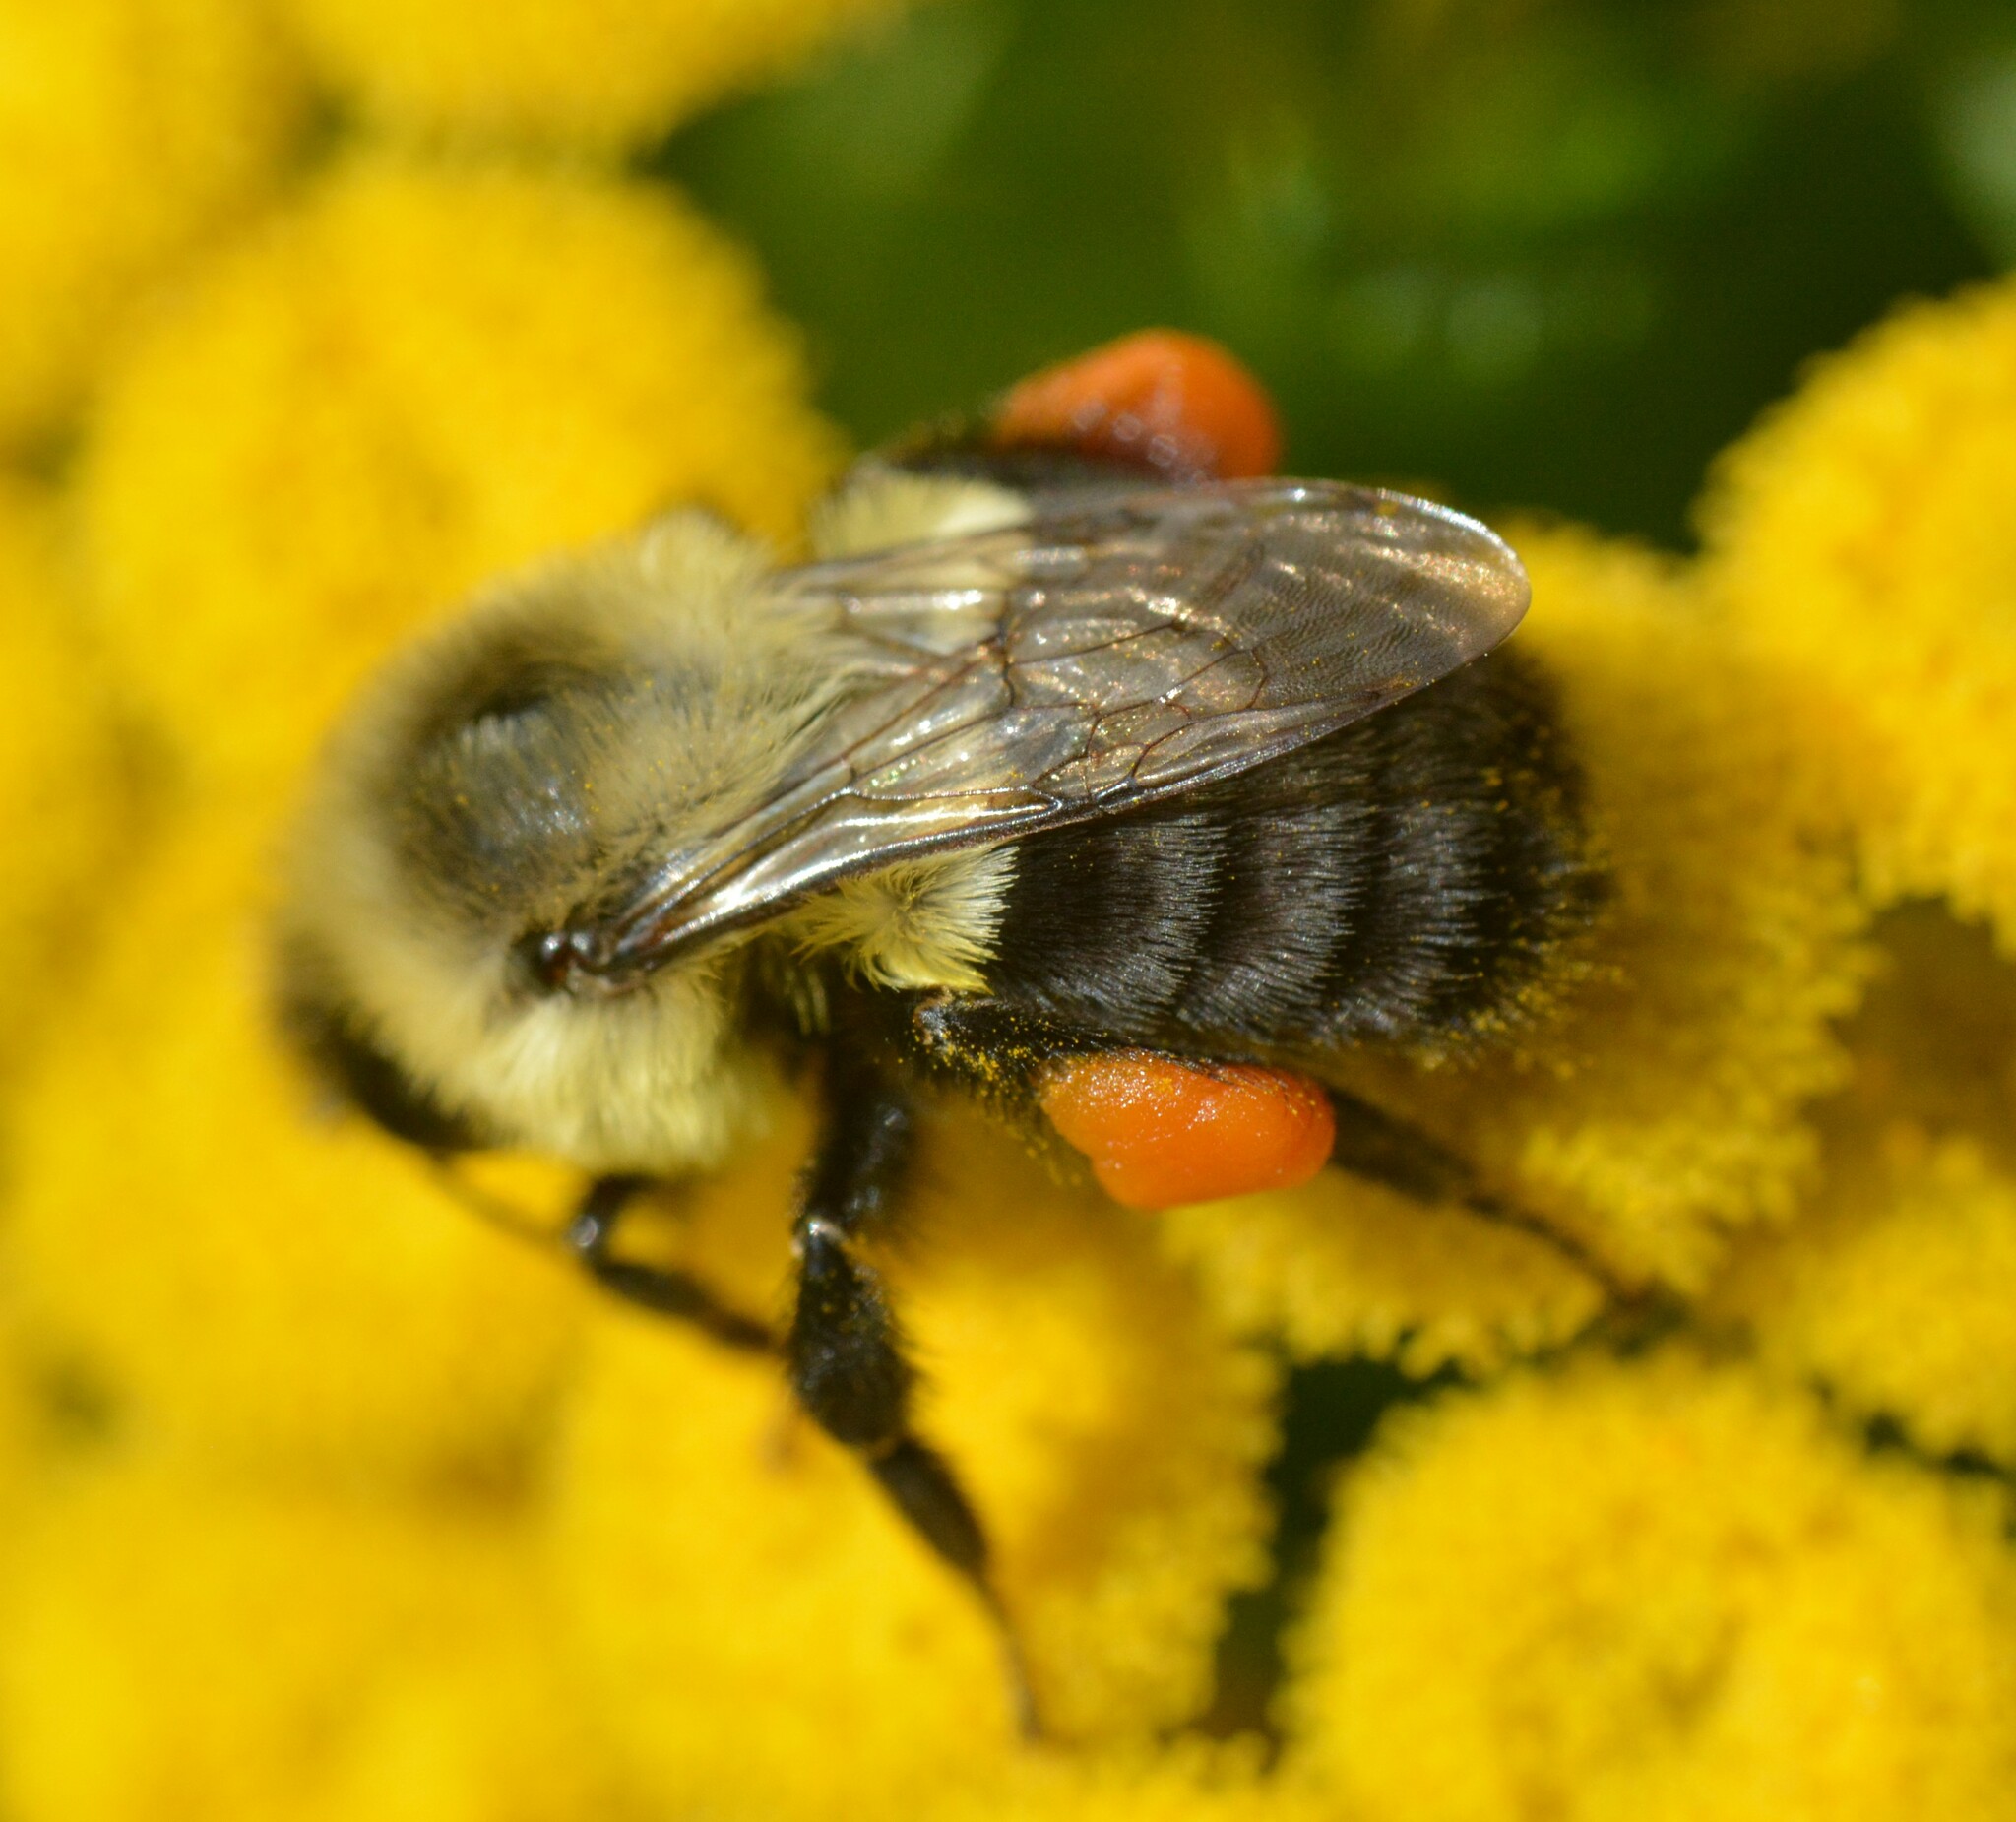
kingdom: Animalia
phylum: Arthropoda
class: Insecta
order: Hymenoptera
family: Apidae
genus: Bombus
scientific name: Bombus impatiens
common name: Common eastern bumble bee
